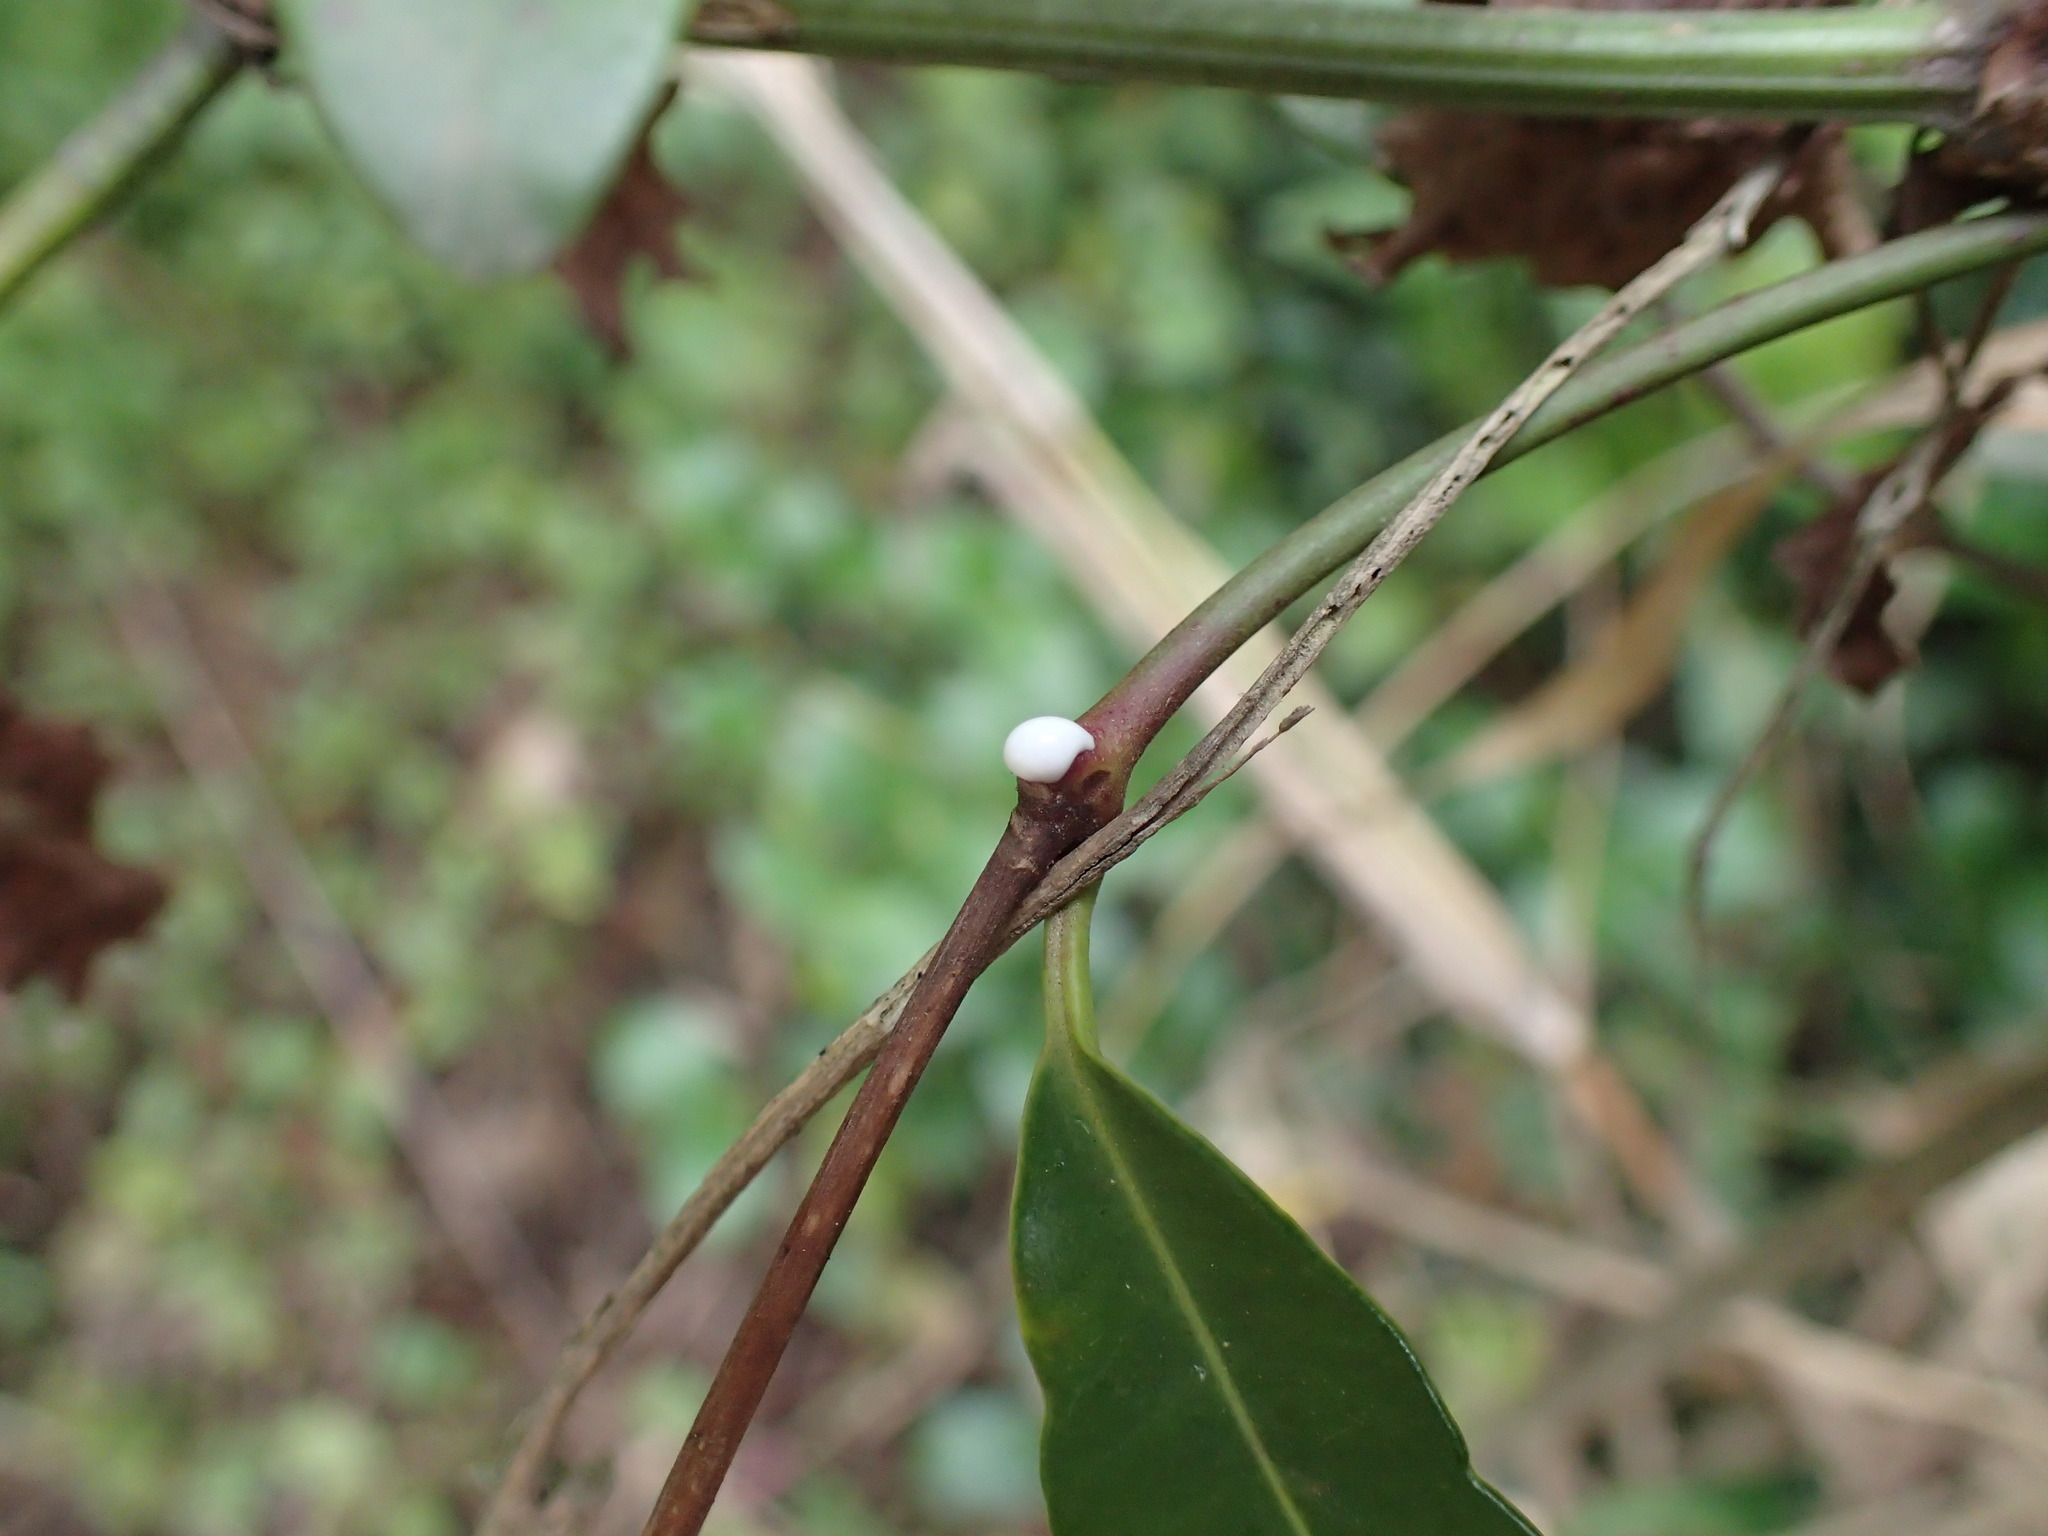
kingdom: Plantae
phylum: Tracheophyta
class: Magnoliopsida
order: Gentianales
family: Apocynaceae
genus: Secamone
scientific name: Secamone gerrardii
